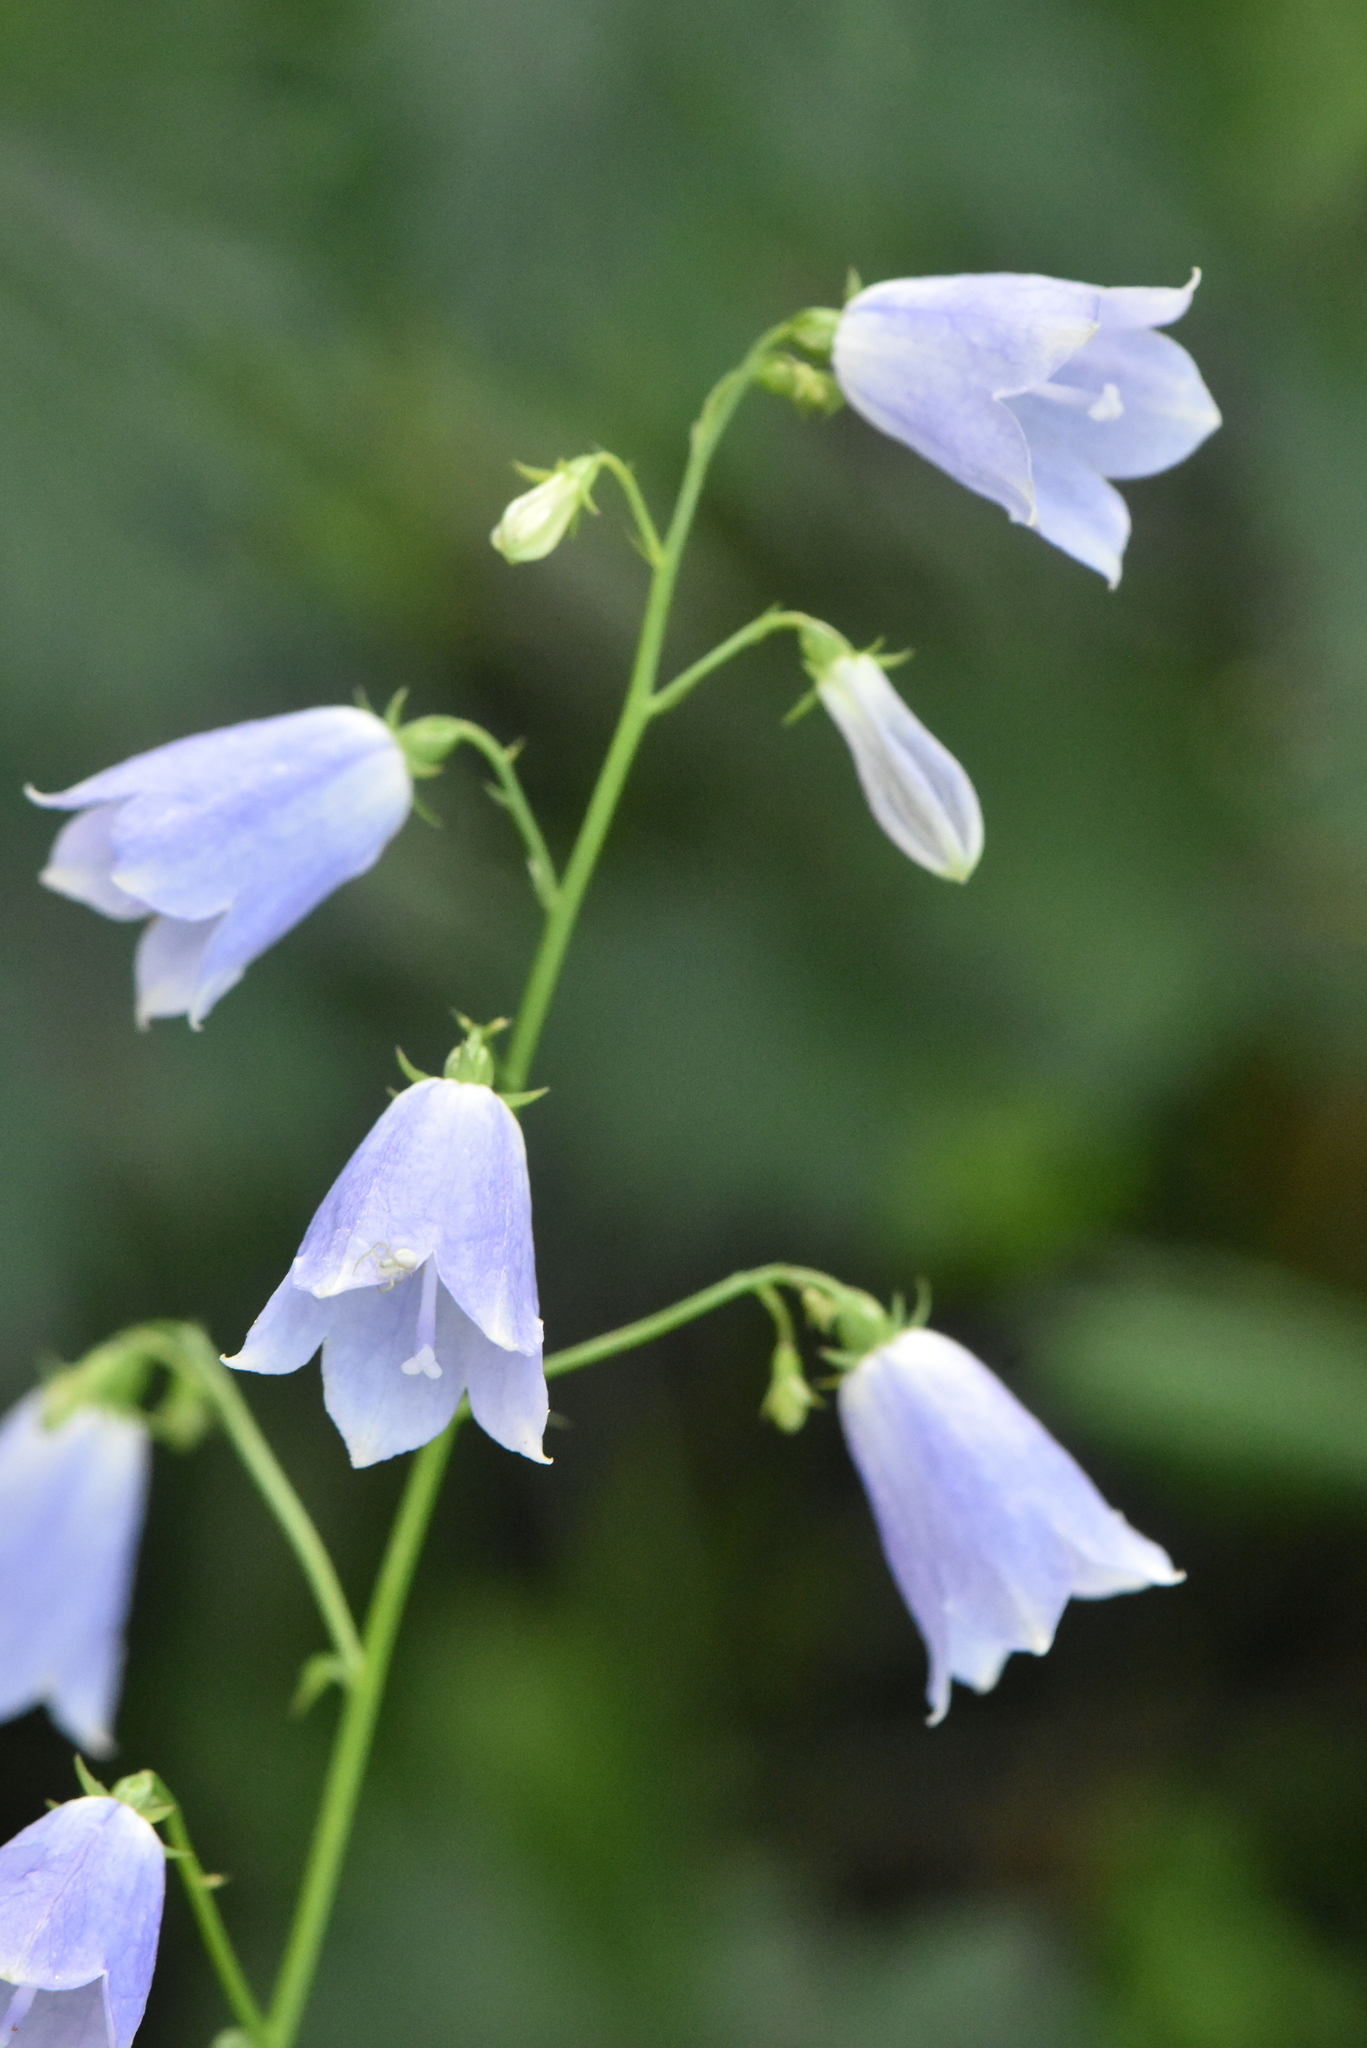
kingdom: Plantae
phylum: Tracheophyta
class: Magnoliopsida
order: Asterales
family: Campanulaceae
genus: Adenophora
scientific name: Adenophora liliifolia
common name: Lilyleaf ladybells
